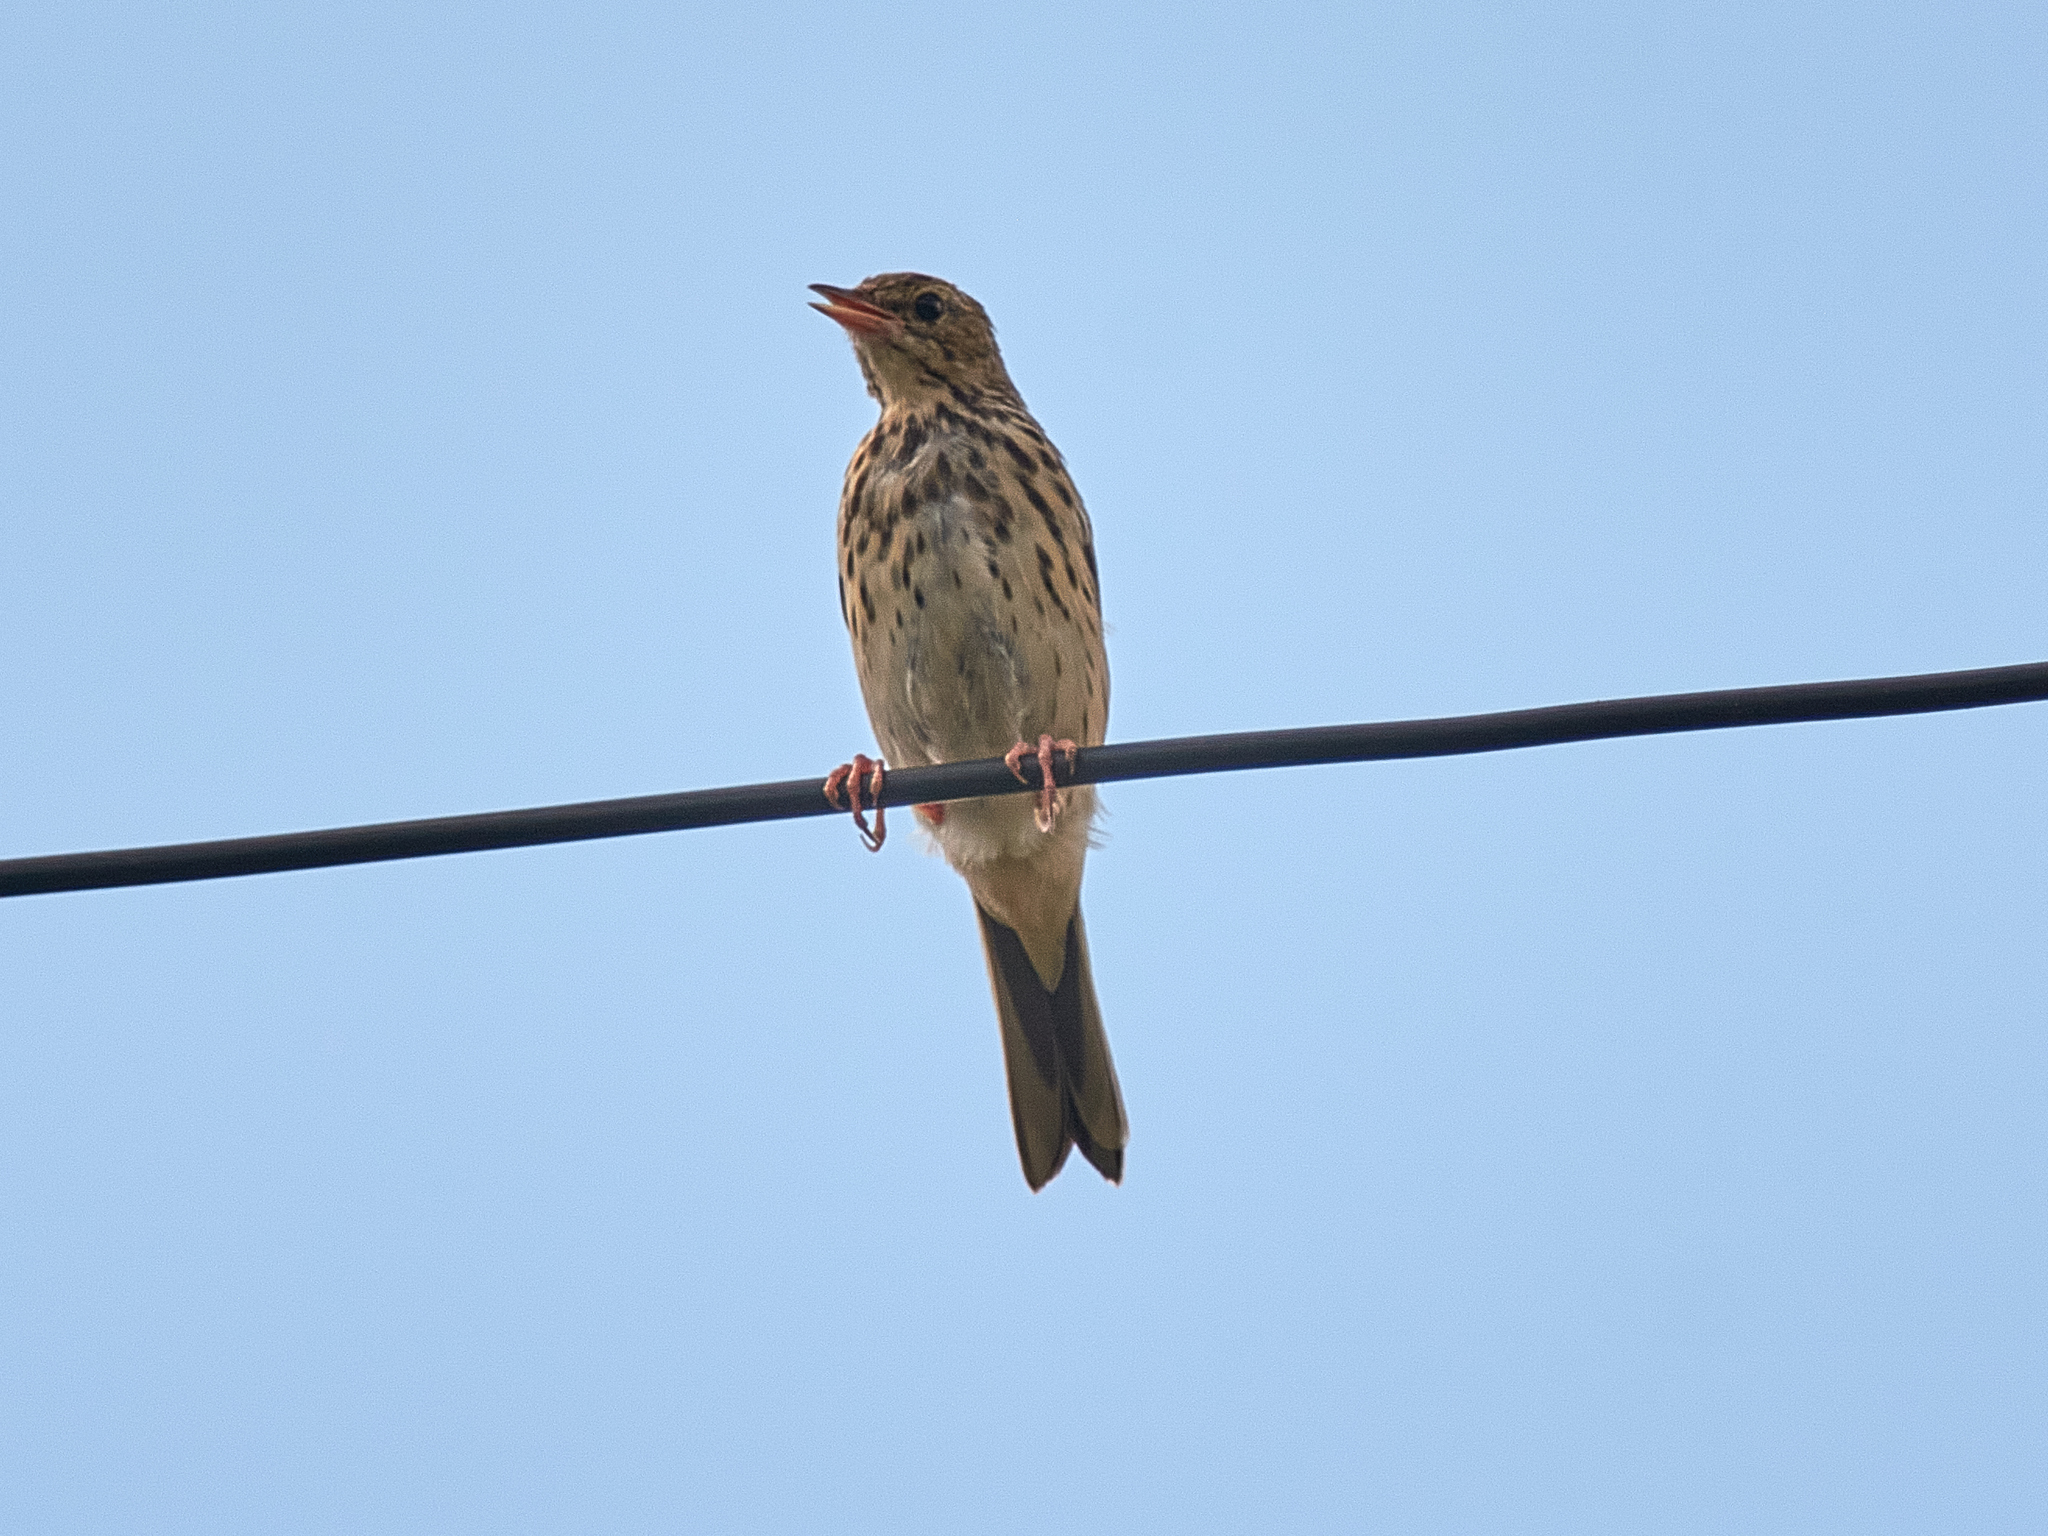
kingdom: Animalia
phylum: Chordata
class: Aves
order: Passeriformes
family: Motacillidae
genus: Anthus
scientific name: Anthus trivialis
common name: Tree pipit
